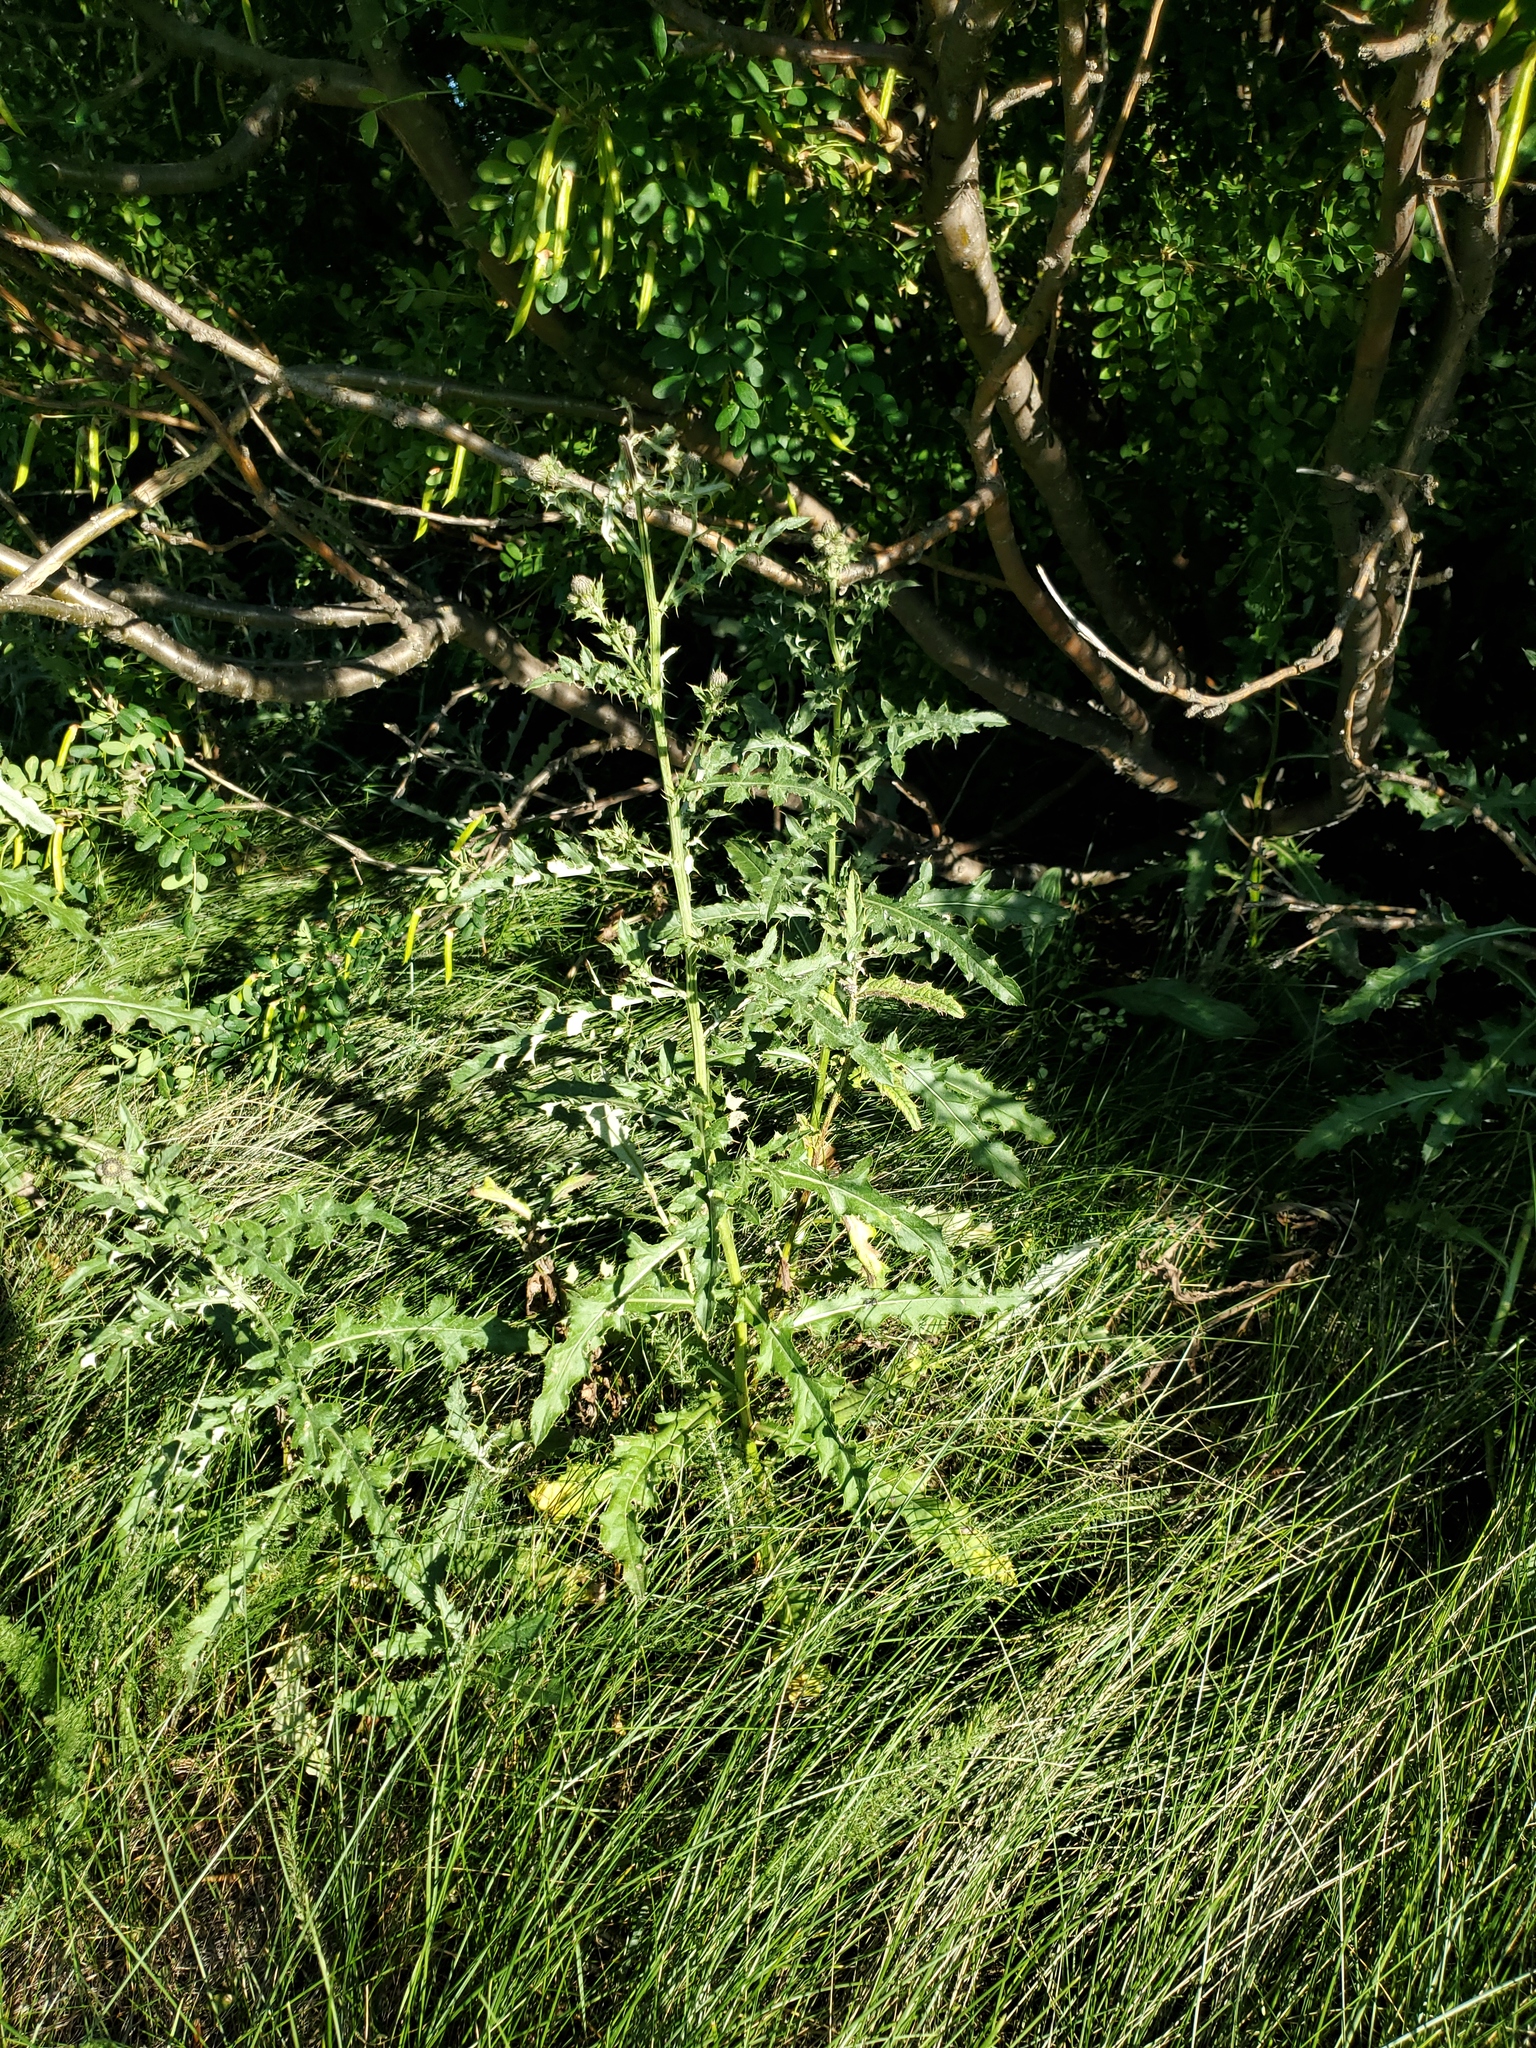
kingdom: Plantae
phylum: Tracheophyta
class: Magnoliopsida
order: Asterales
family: Asteraceae
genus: Cirsium
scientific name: Cirsium arvense
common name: Creeping thistle
